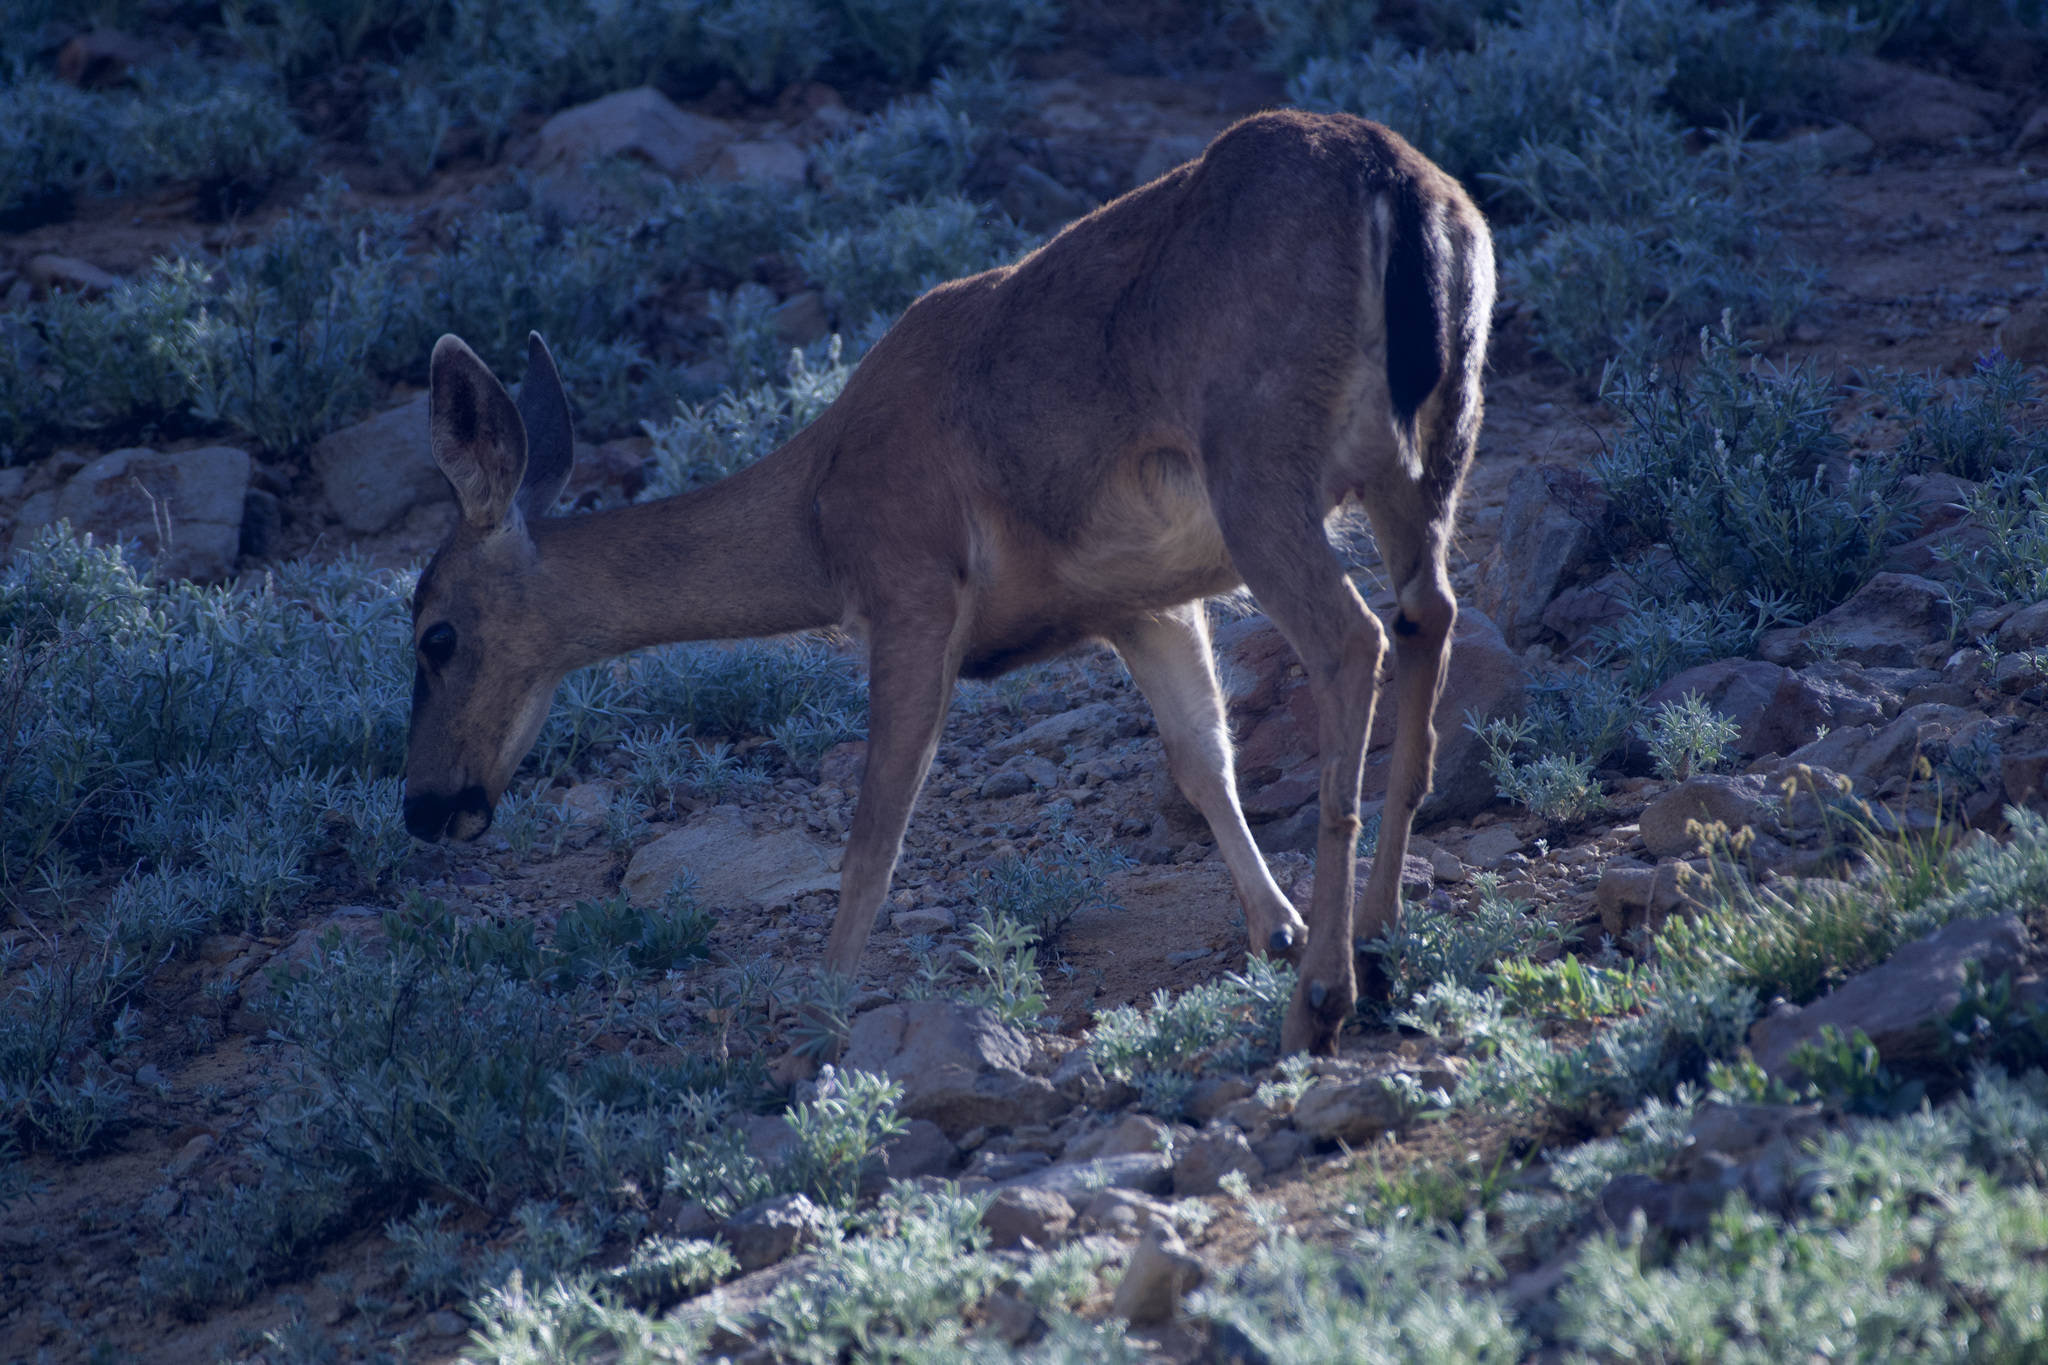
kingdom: Animalia
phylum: Chordata
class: Mammalia
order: Artiodactyla
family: Cervidae
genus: Odocoileus
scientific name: Odocoileus hemionus
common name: Mule deer
